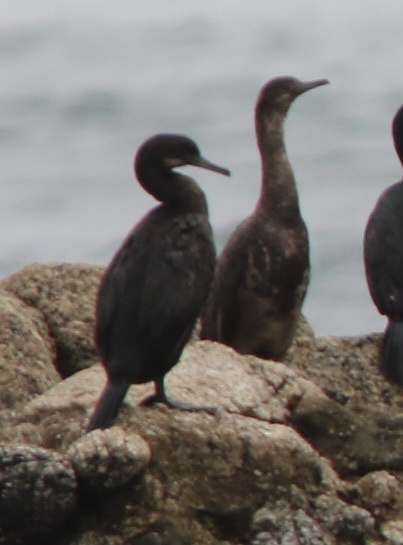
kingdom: Animalia
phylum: Chordata
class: Aves
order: Suliformes
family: Phalacrocoracidae
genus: Urile
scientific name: Urile penicillatus
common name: Brandt's cormorant
